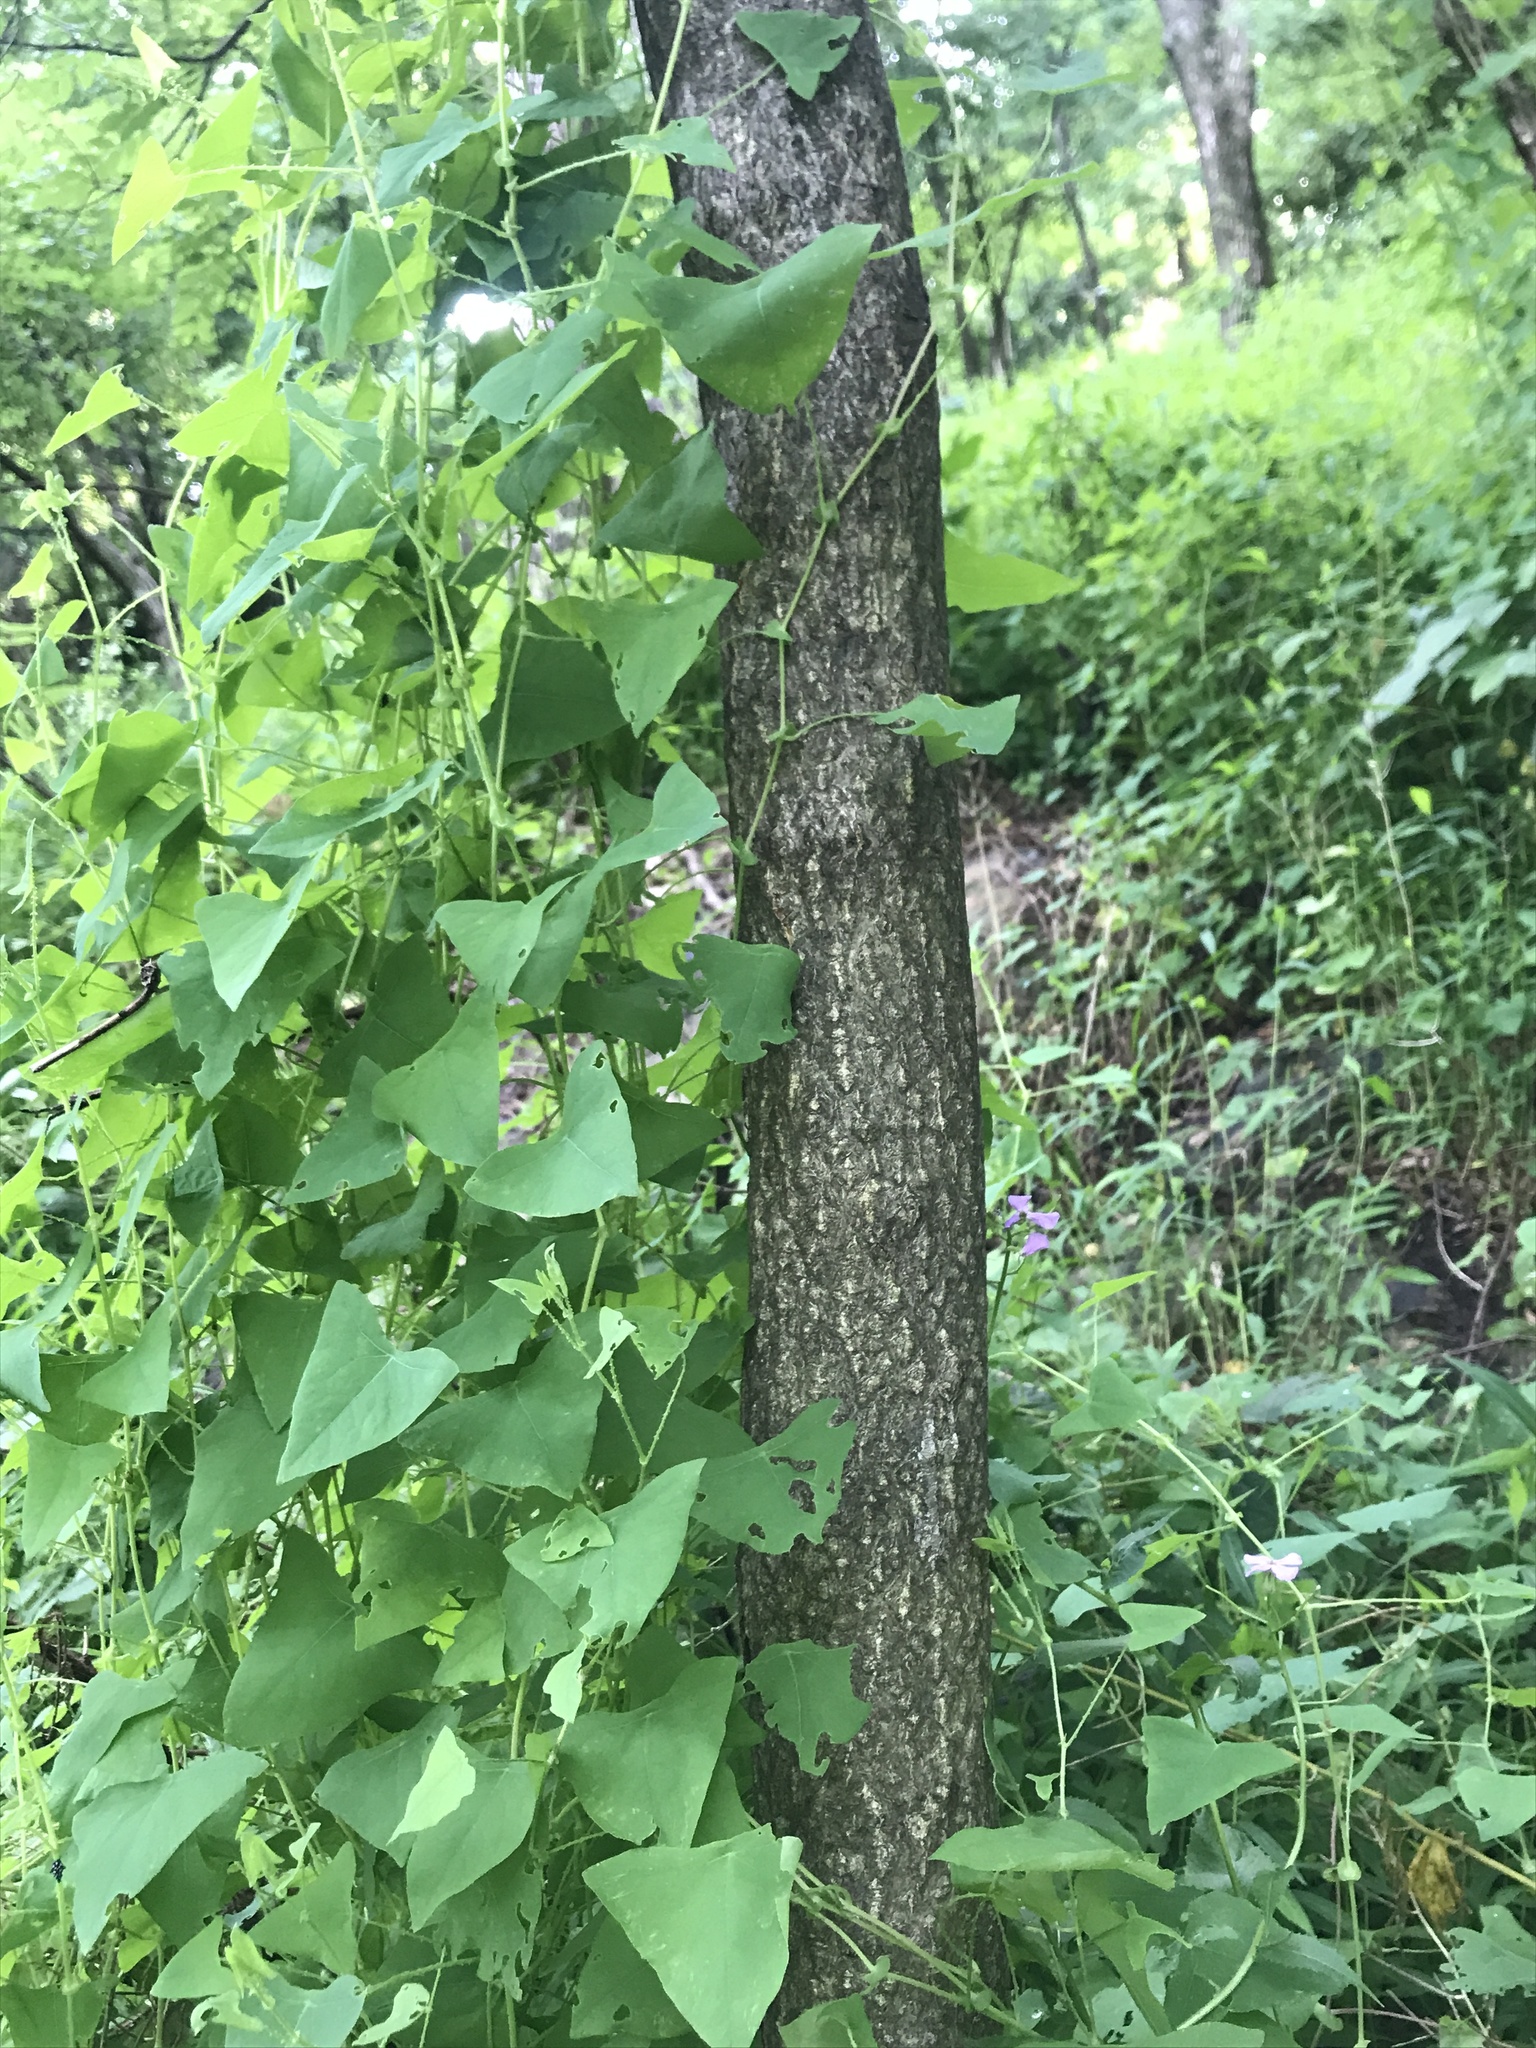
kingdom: Plantae
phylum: Tracheophyta
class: Magnoliopsida
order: Sapindales
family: Simaroubaceae
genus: Ailanthus
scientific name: Ailanthus altissima
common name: Tree-of-heaven
